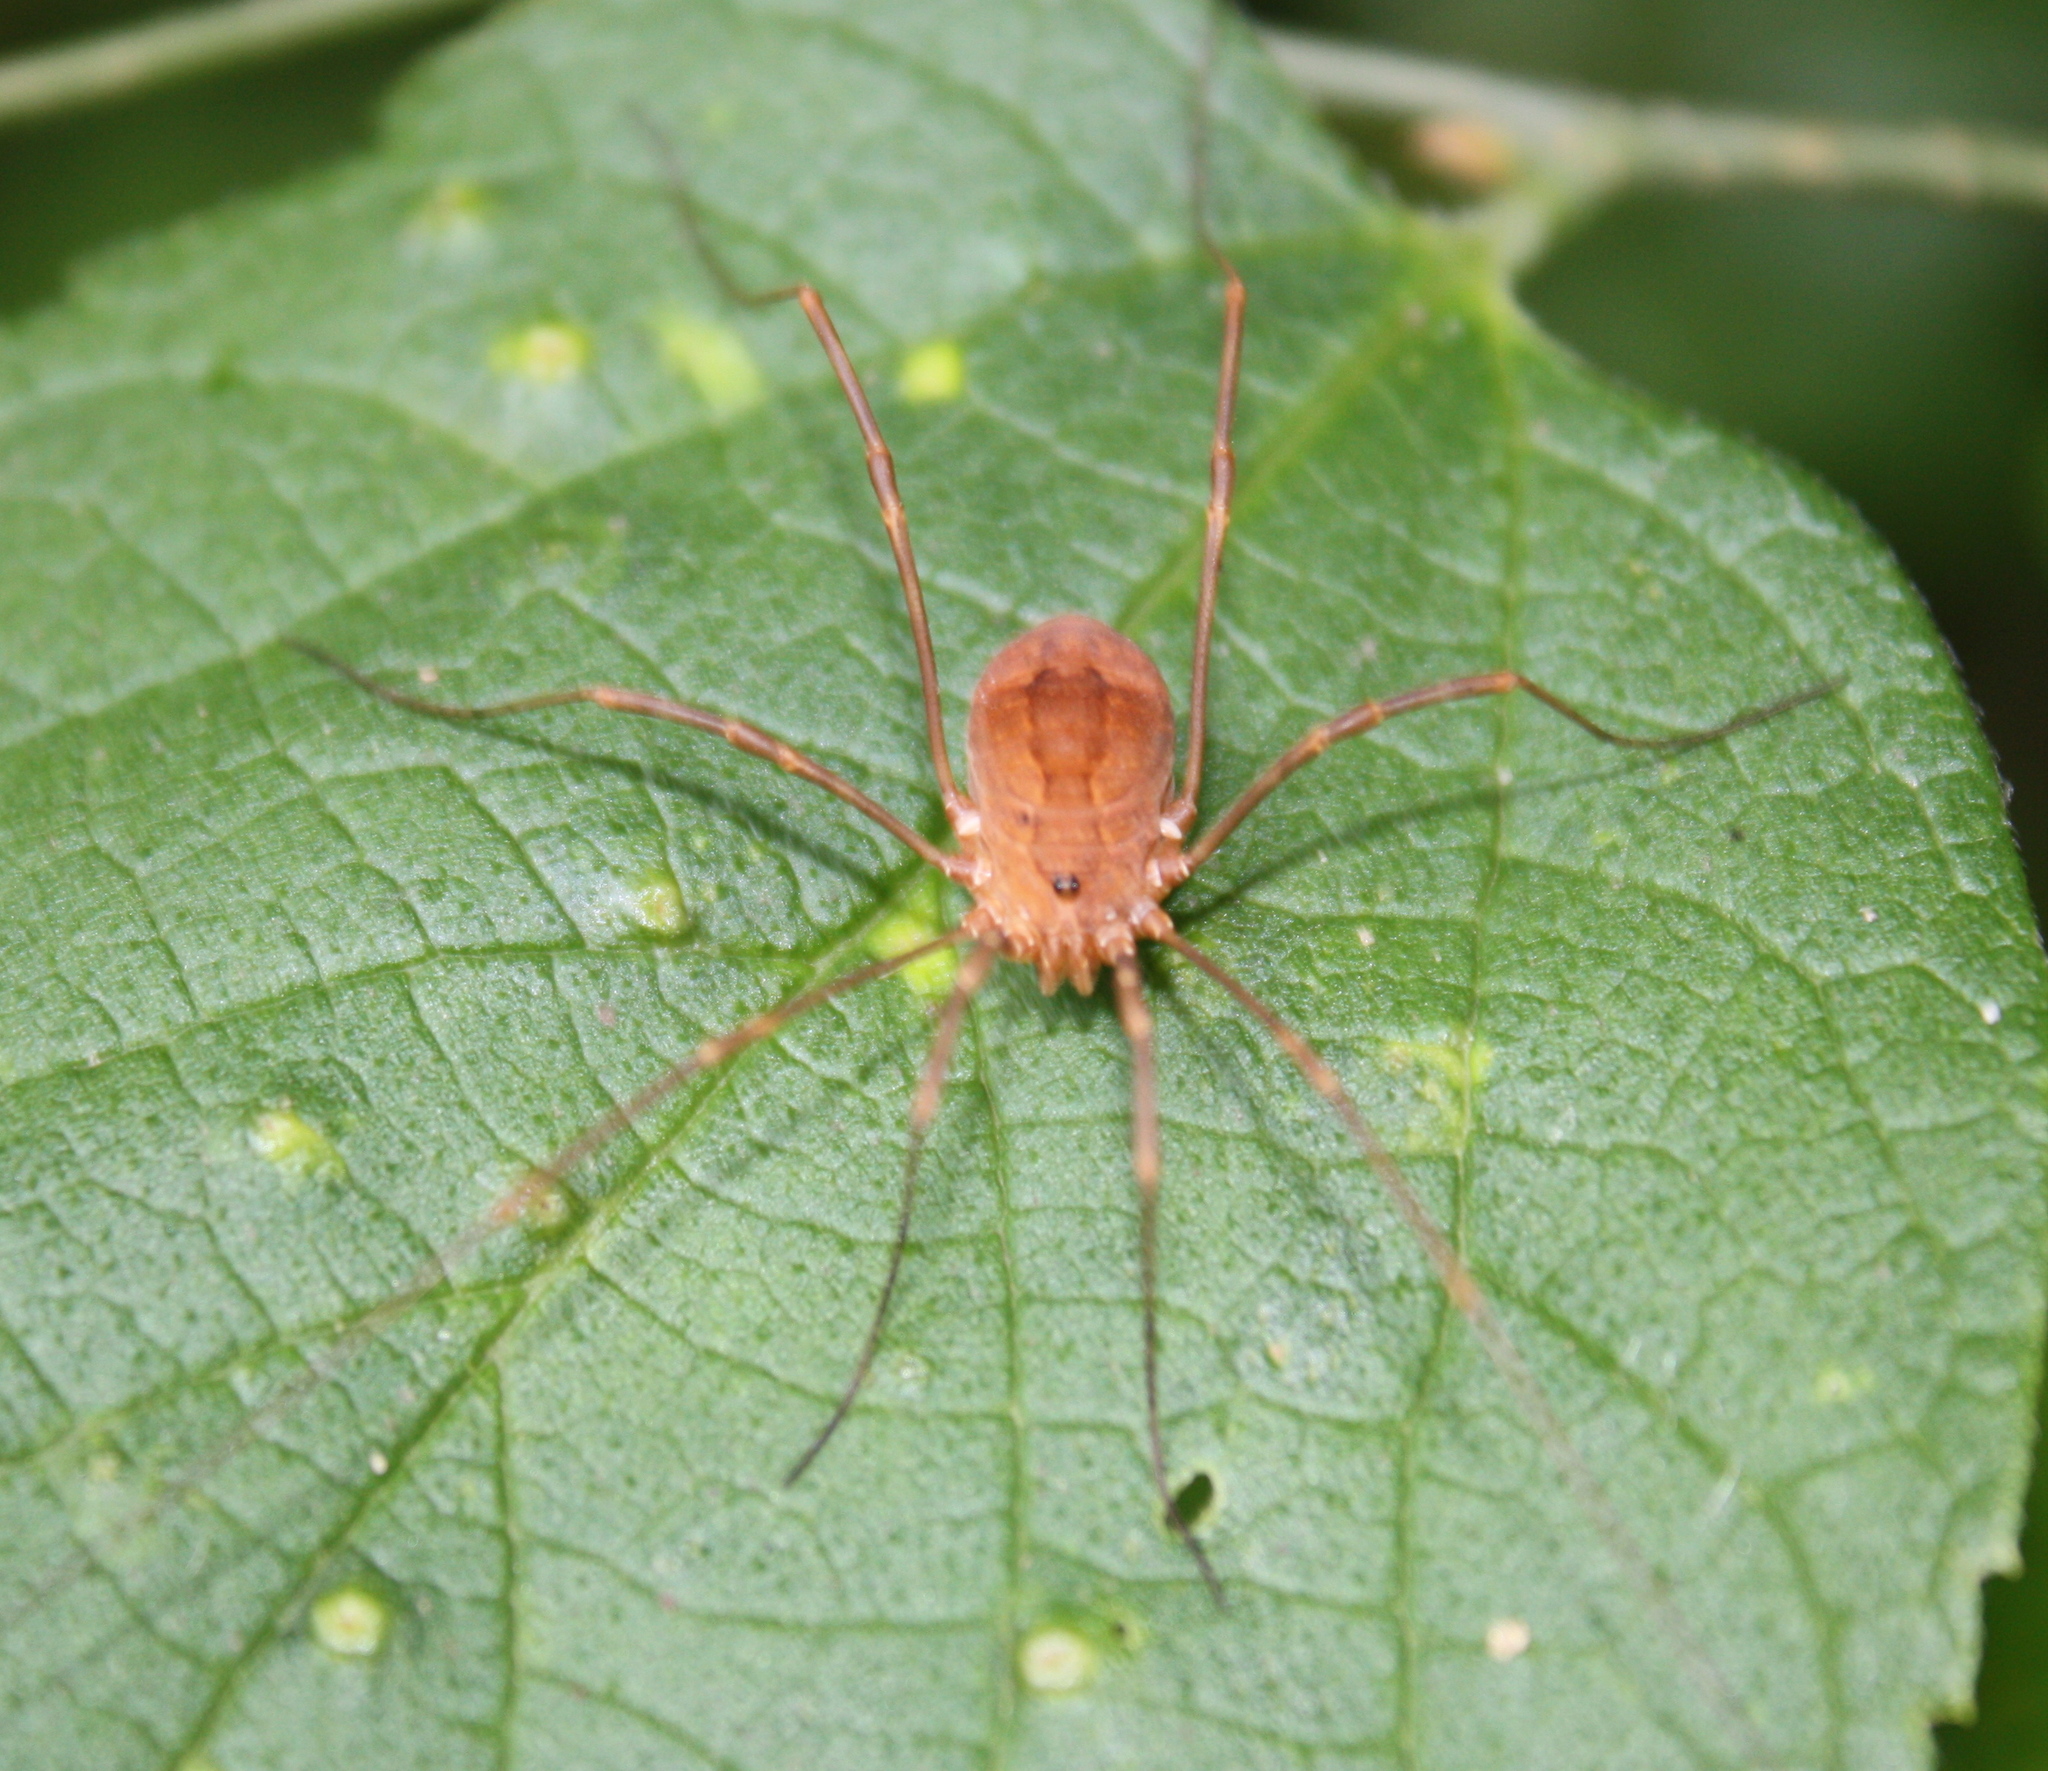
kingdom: Animalia
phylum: Arthropoda
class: Arachnida
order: Opiliones
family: Sclerosomatidae
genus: Leiobunum
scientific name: Leiobunum flavum
